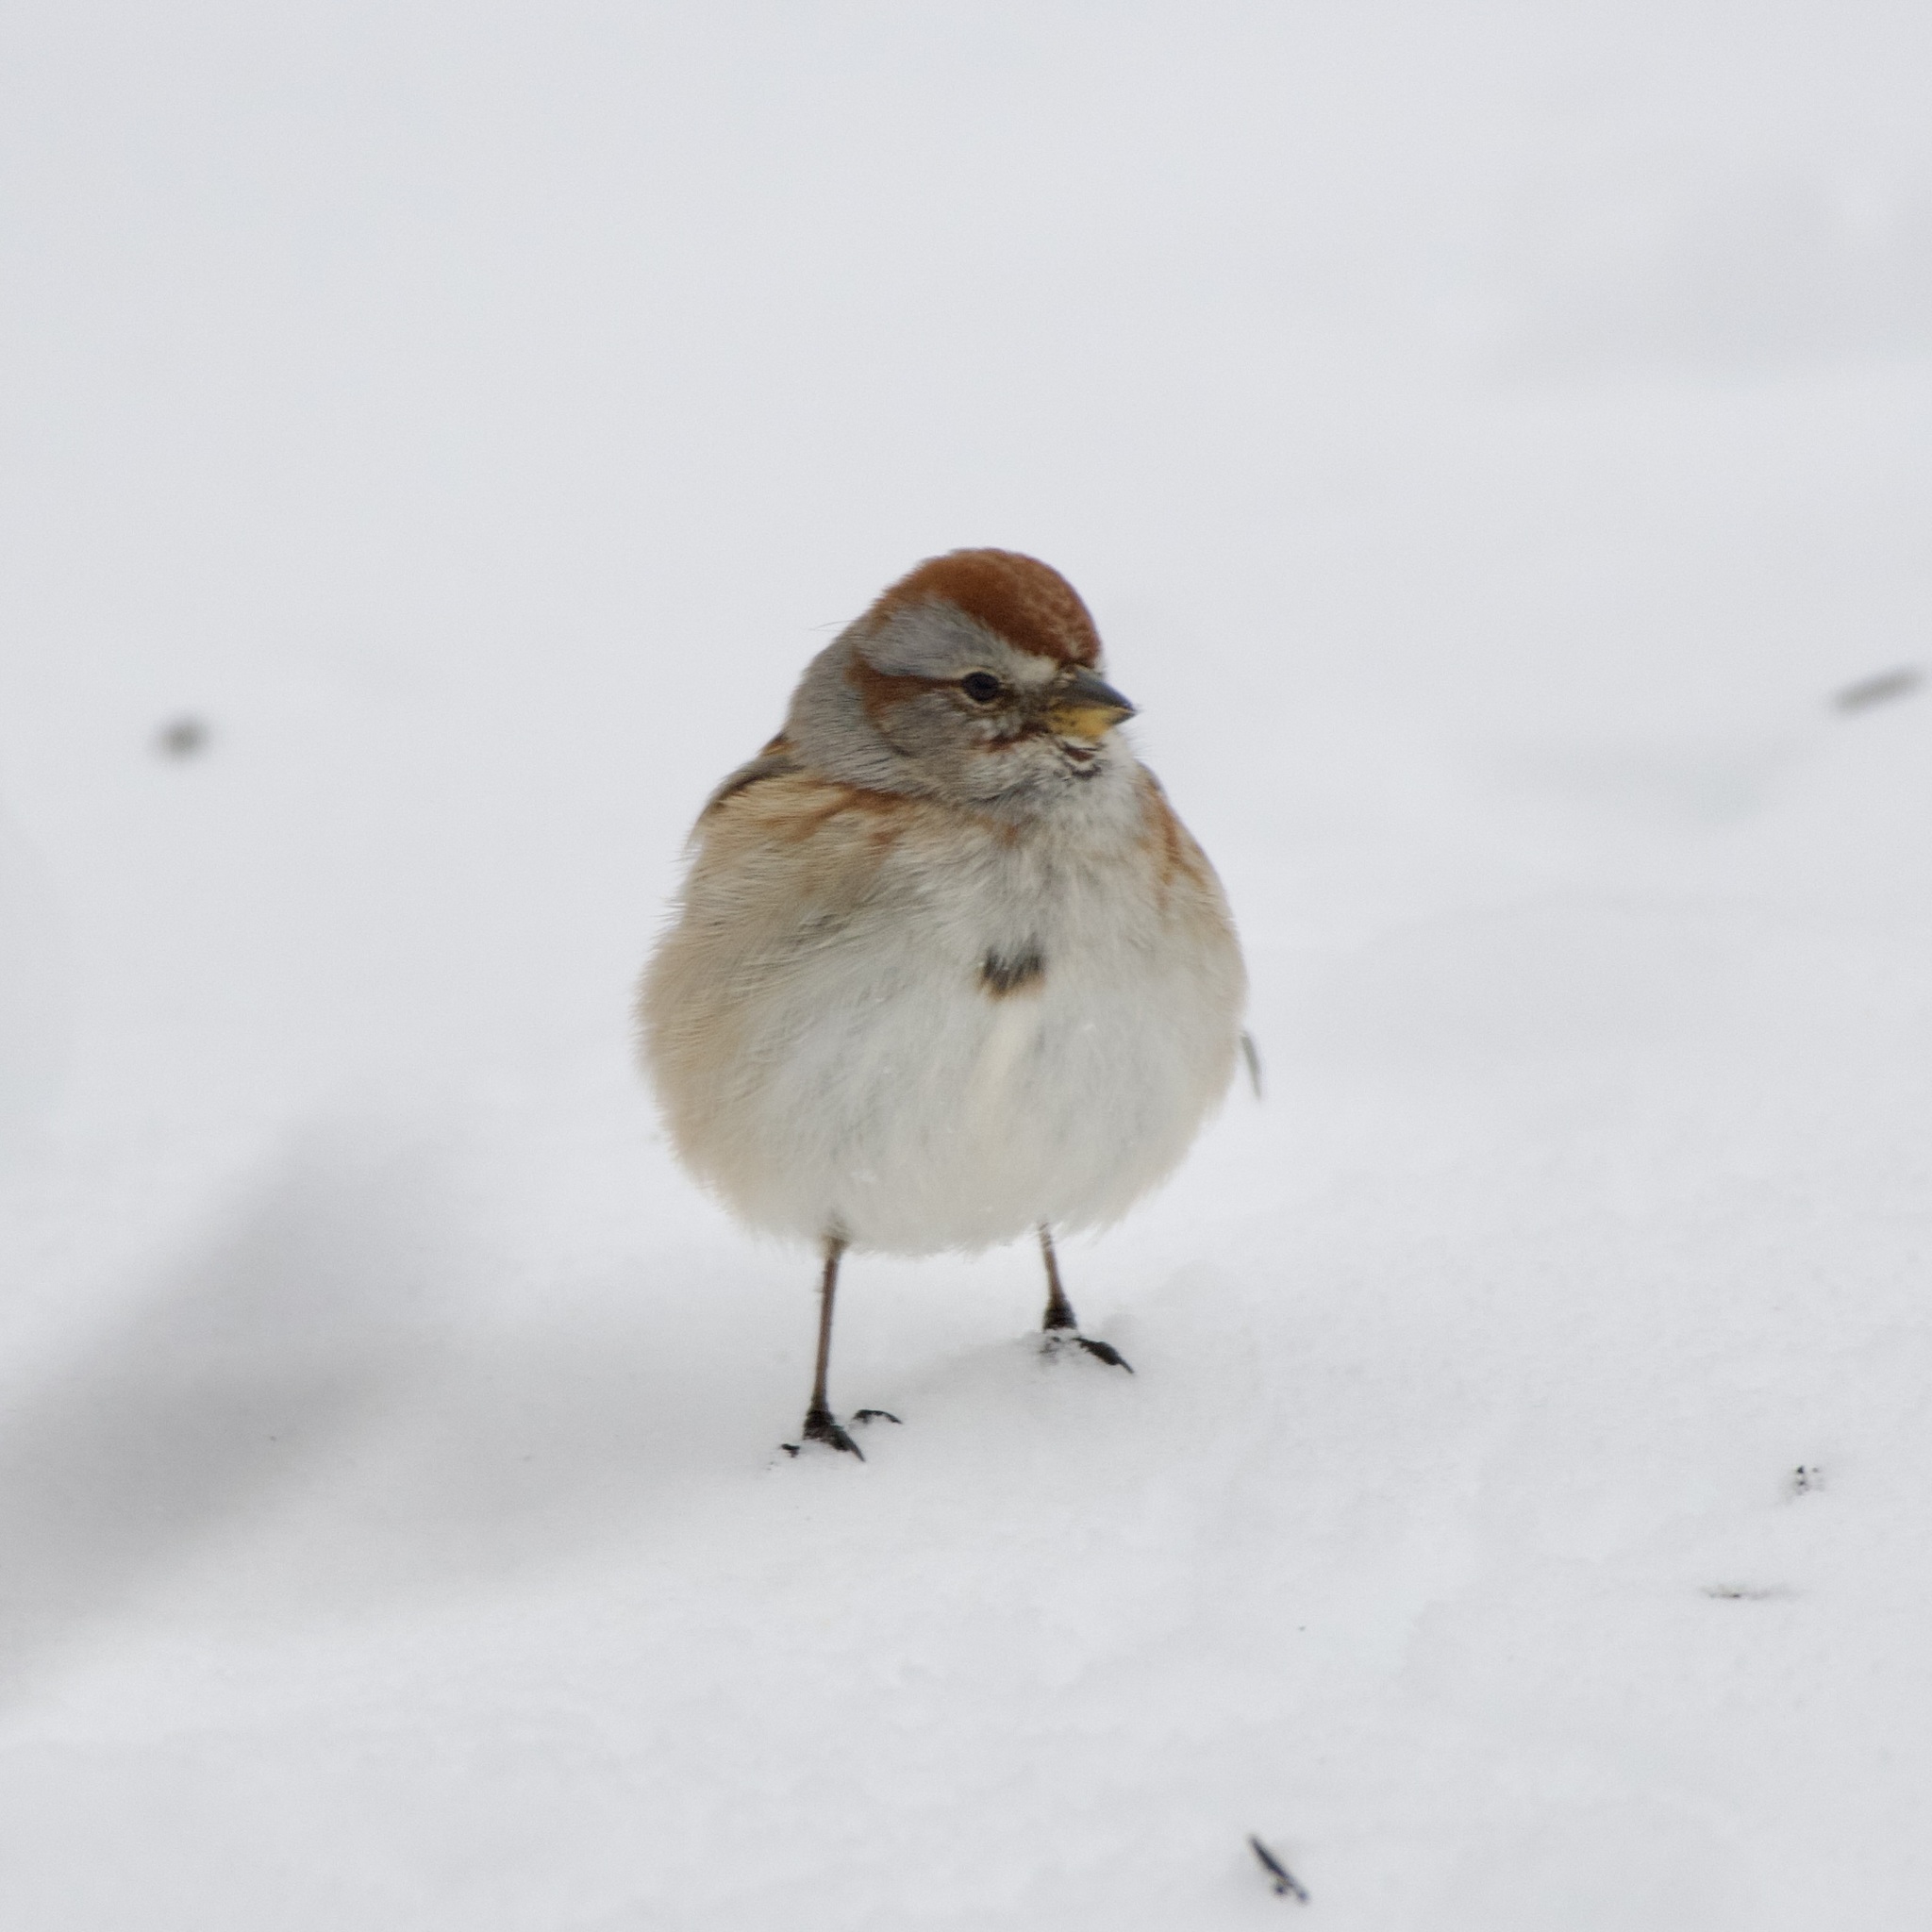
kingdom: Animalia
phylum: Chordata
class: Aves
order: Passeriformes
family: Passerellidae
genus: Spizelloides
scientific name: Spizelloides arborea
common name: American tree sparrow
